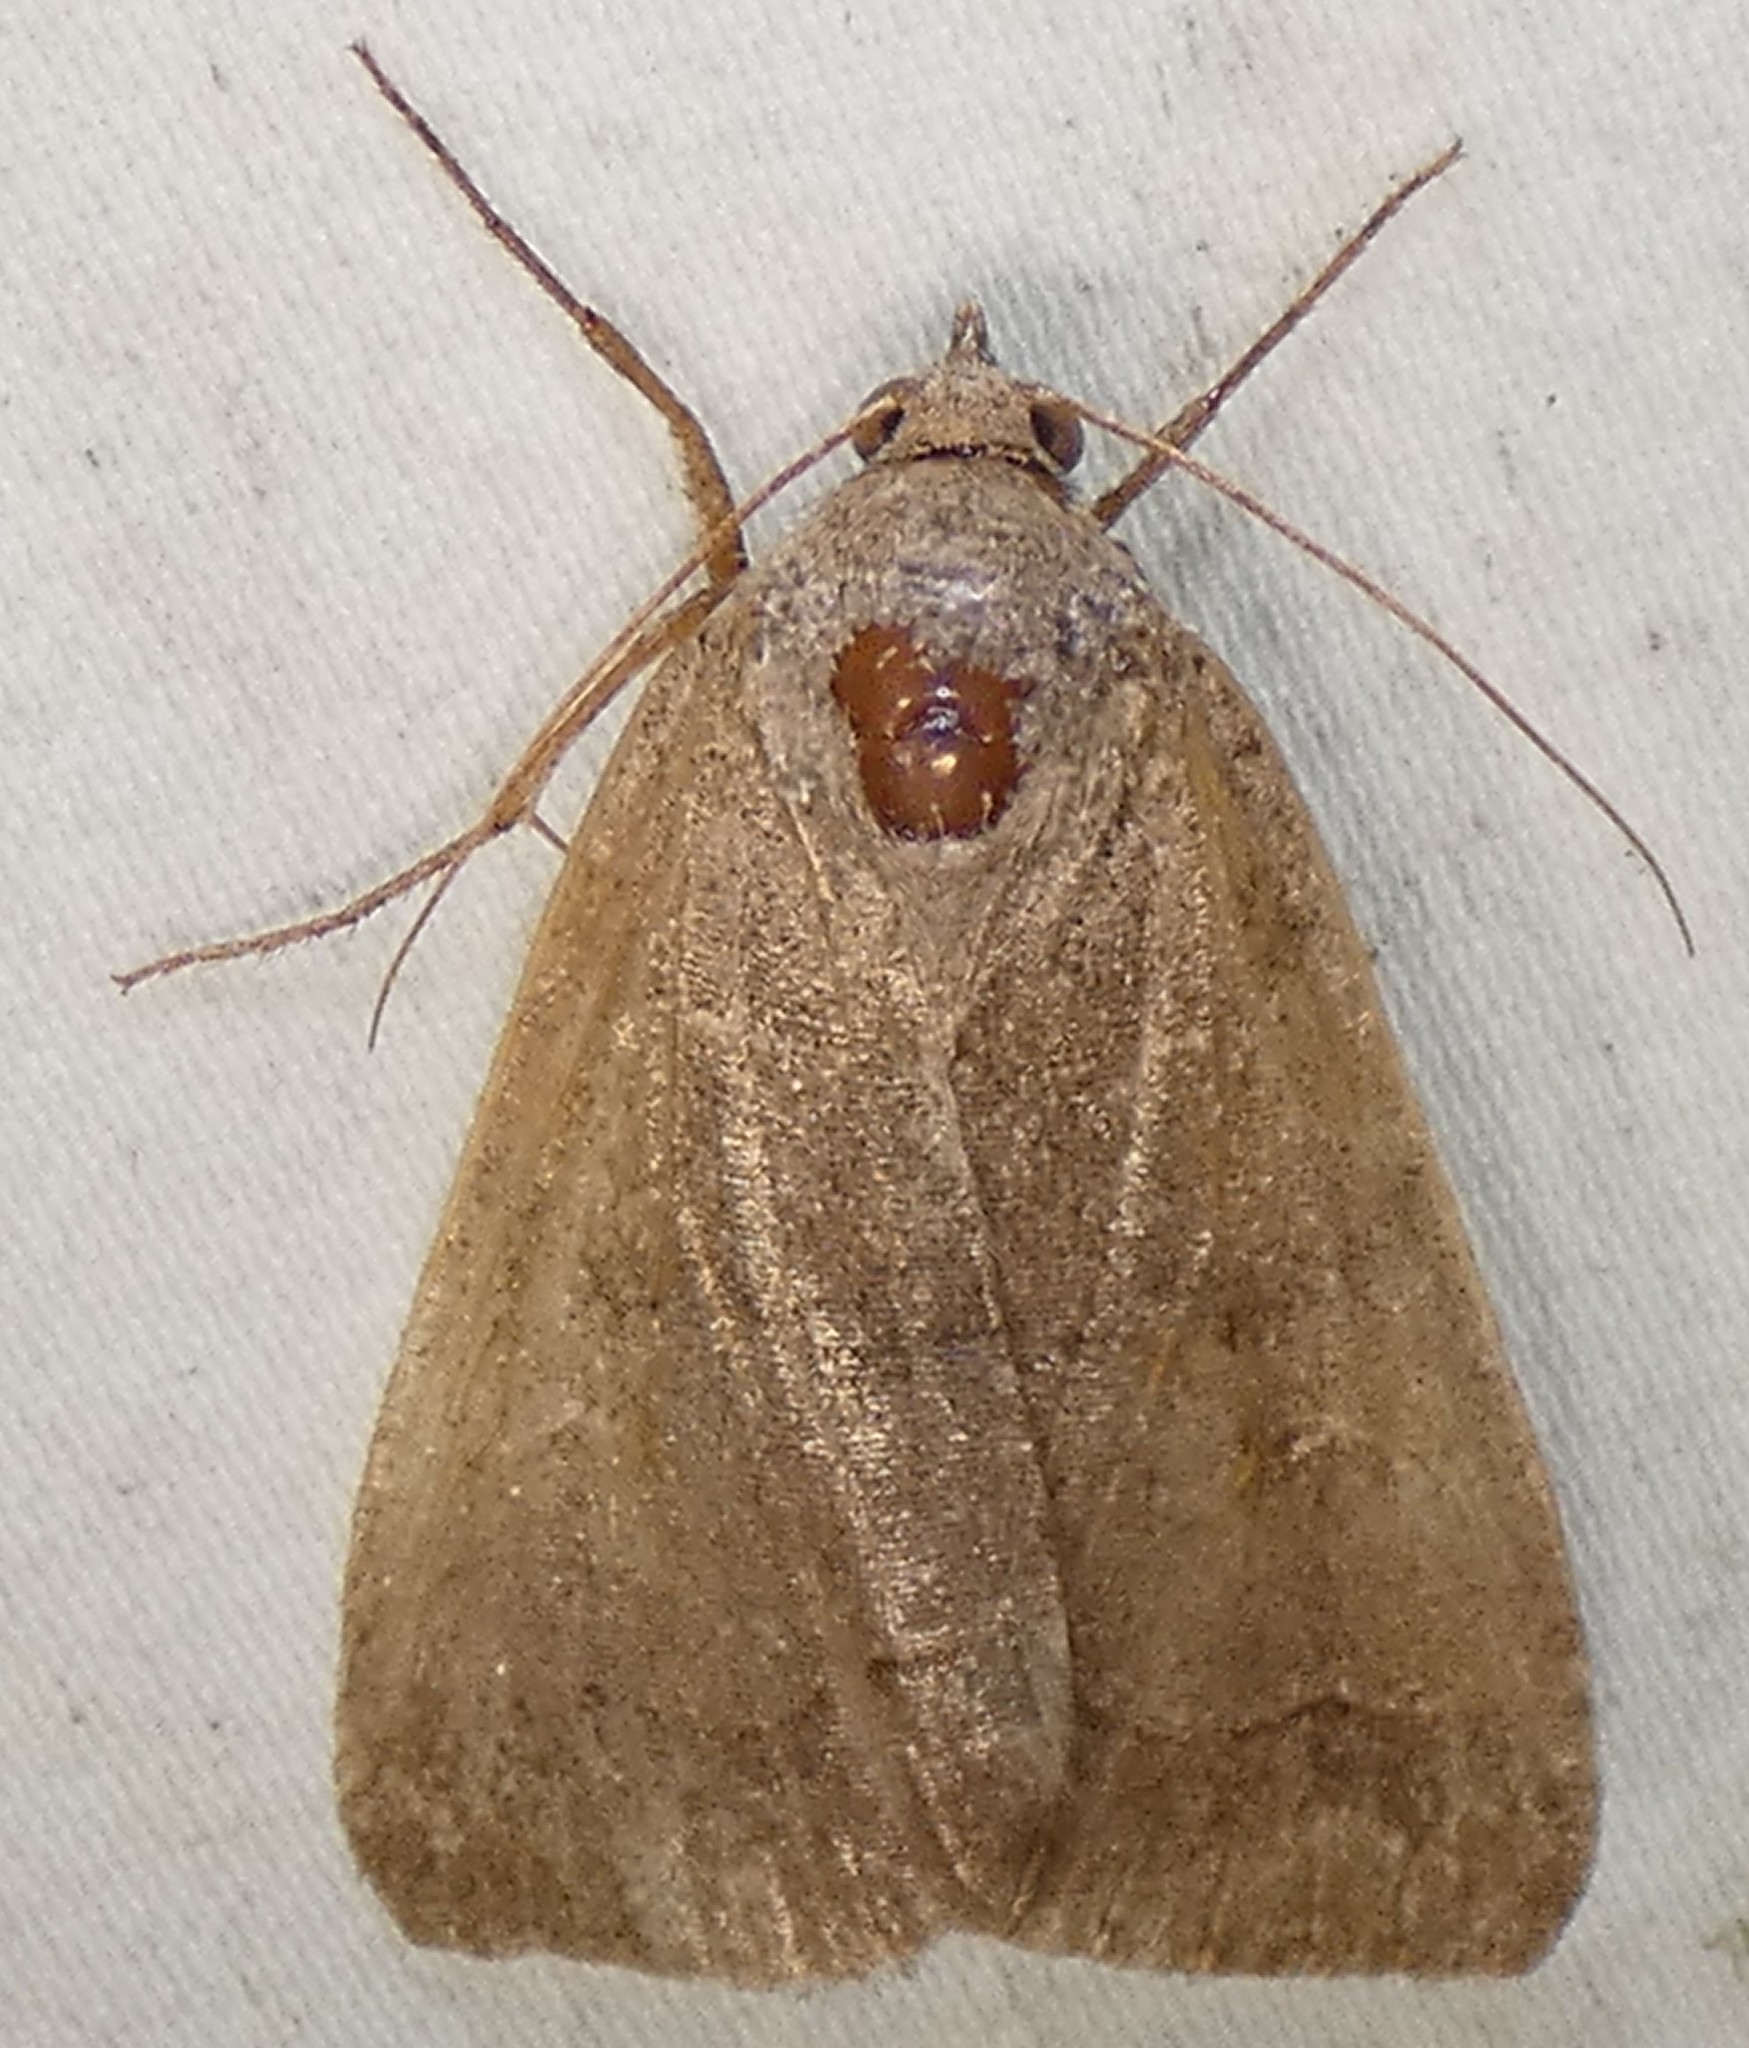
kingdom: Animalia
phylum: Arthropoda
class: Insecta
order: Lepidoptera
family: Erebidae
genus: Phoberia
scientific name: Phoberia atomaris
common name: Common oak moth
